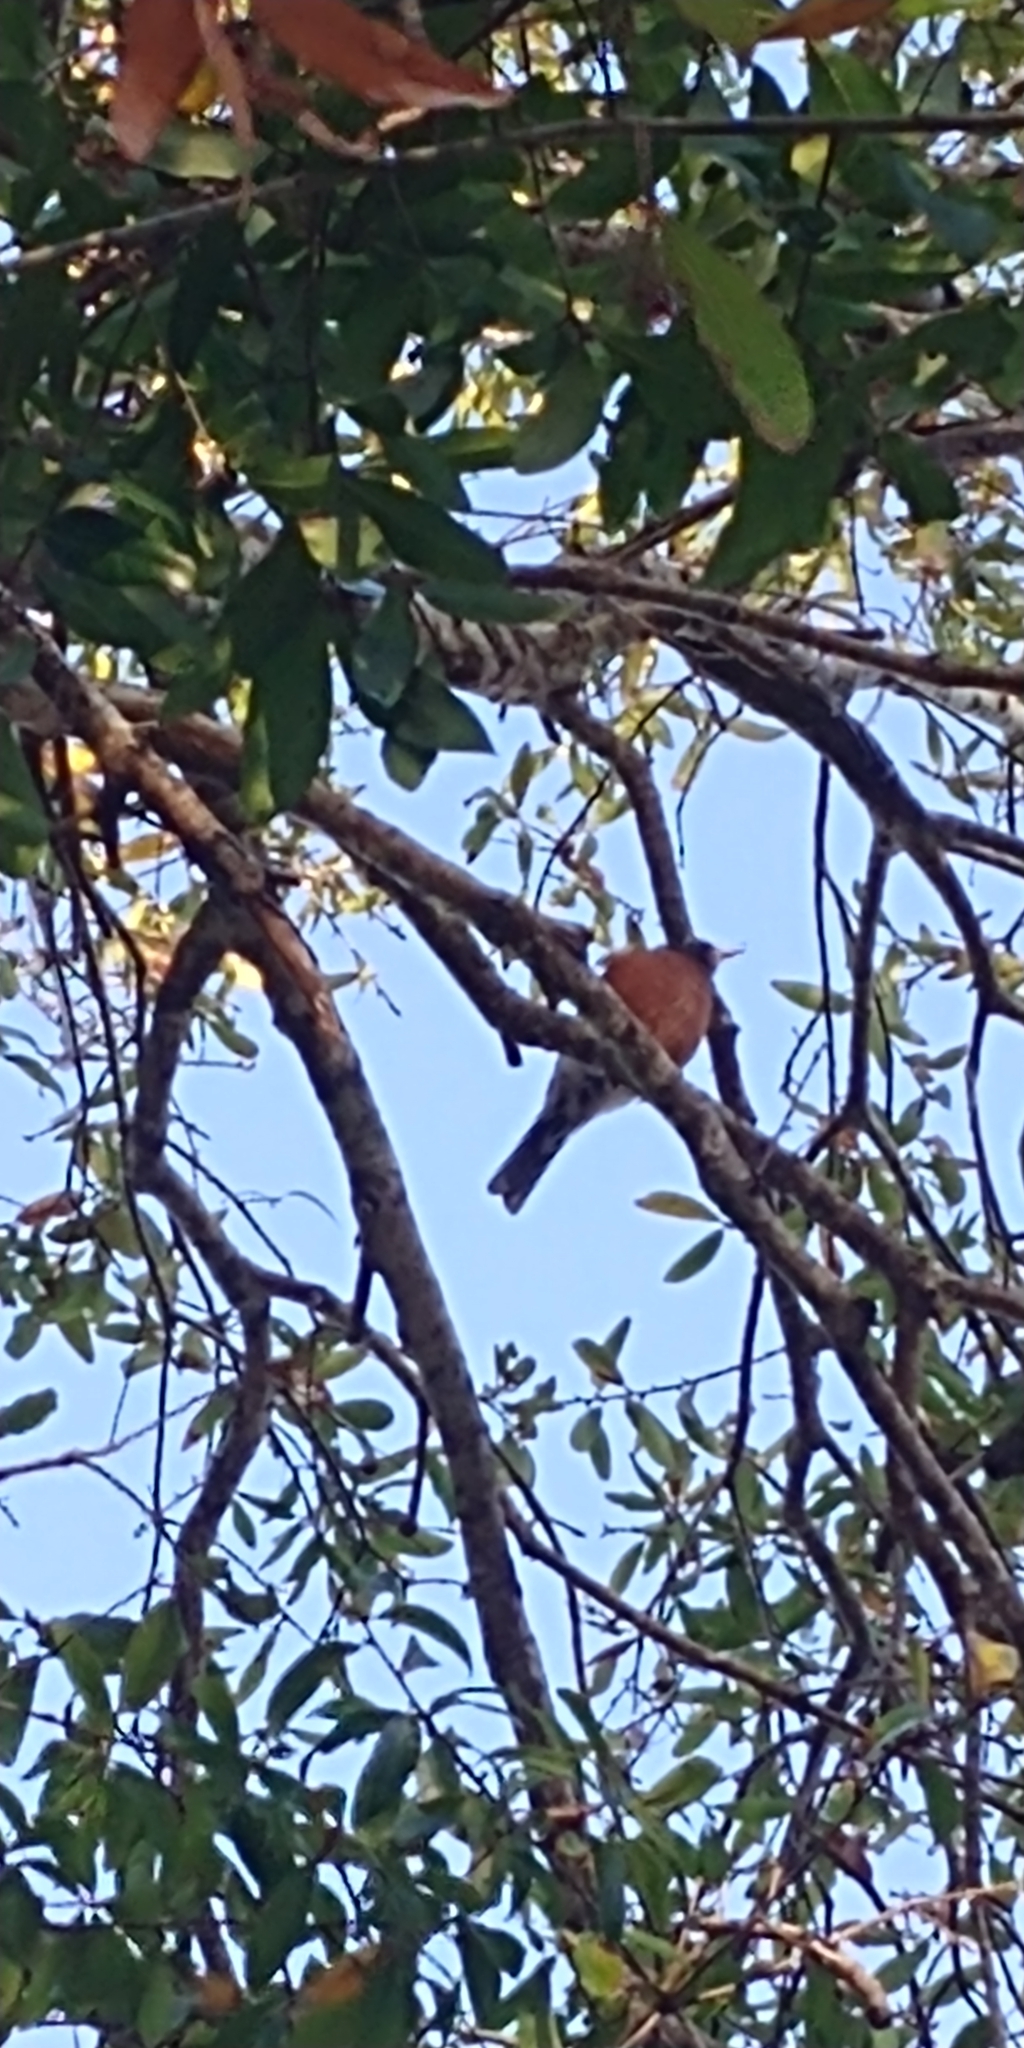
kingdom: Animalia
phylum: Chordata
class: Aves
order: Passeriformes
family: Turdidae
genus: Turdus
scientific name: Turdus migratorius
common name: American robin
